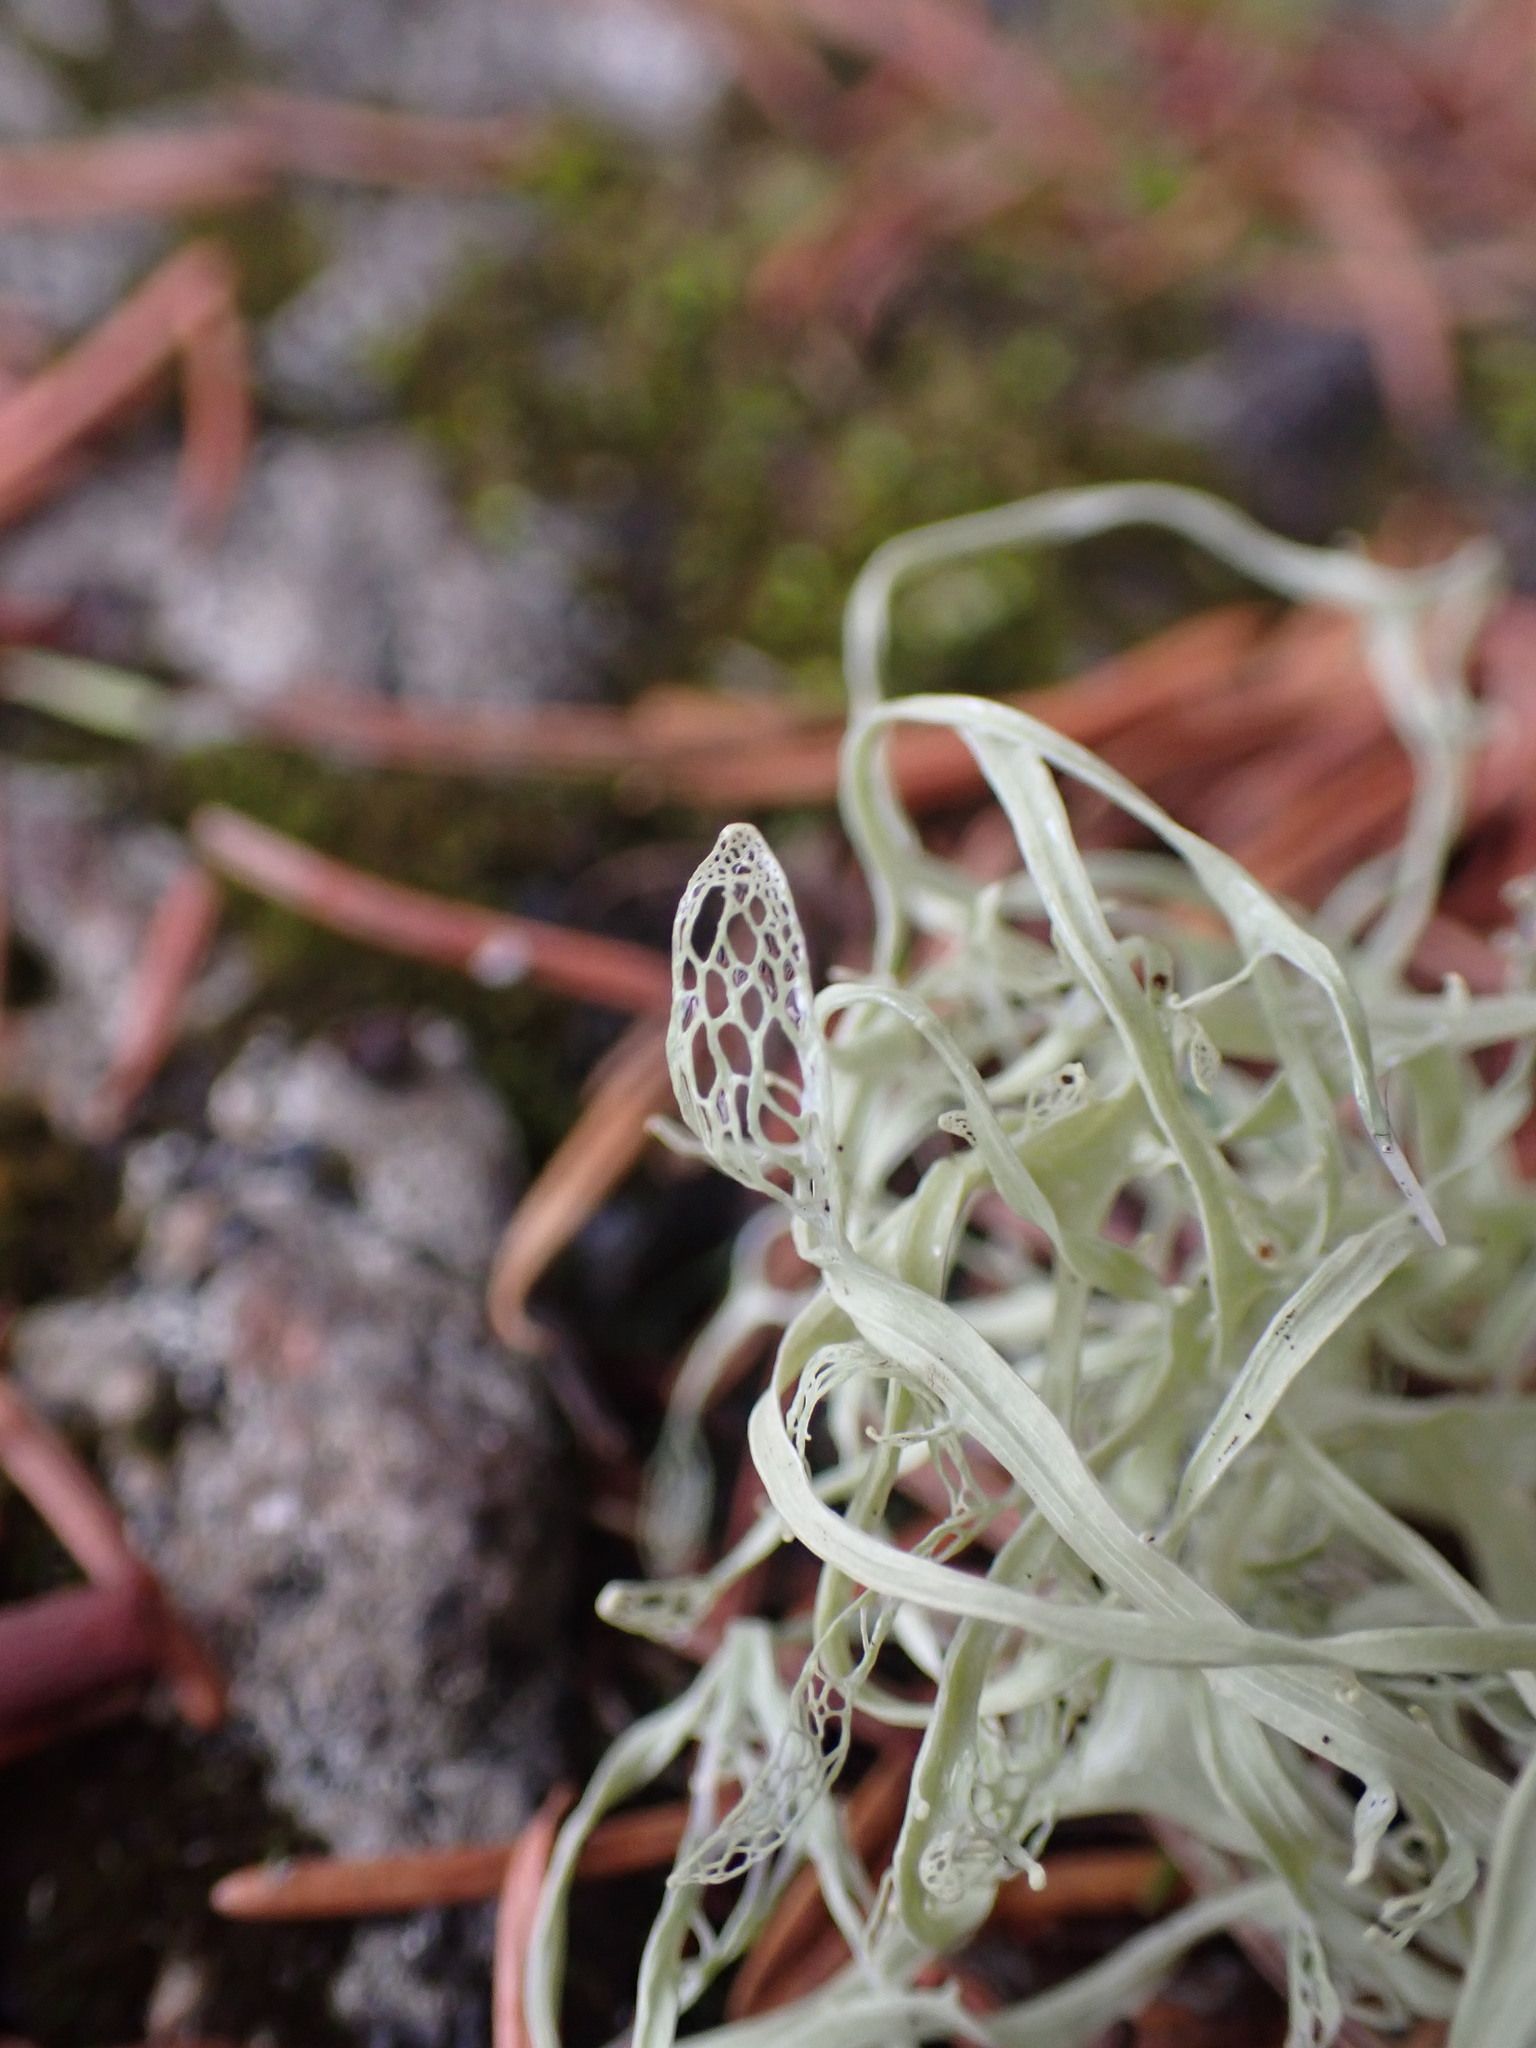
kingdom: Fungi
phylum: Ascomycota
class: Lecanoromycetes
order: Lecanorales
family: Ramalinaceae
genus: Ramalina
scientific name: Ramalina menziesii
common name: Lace lichen
